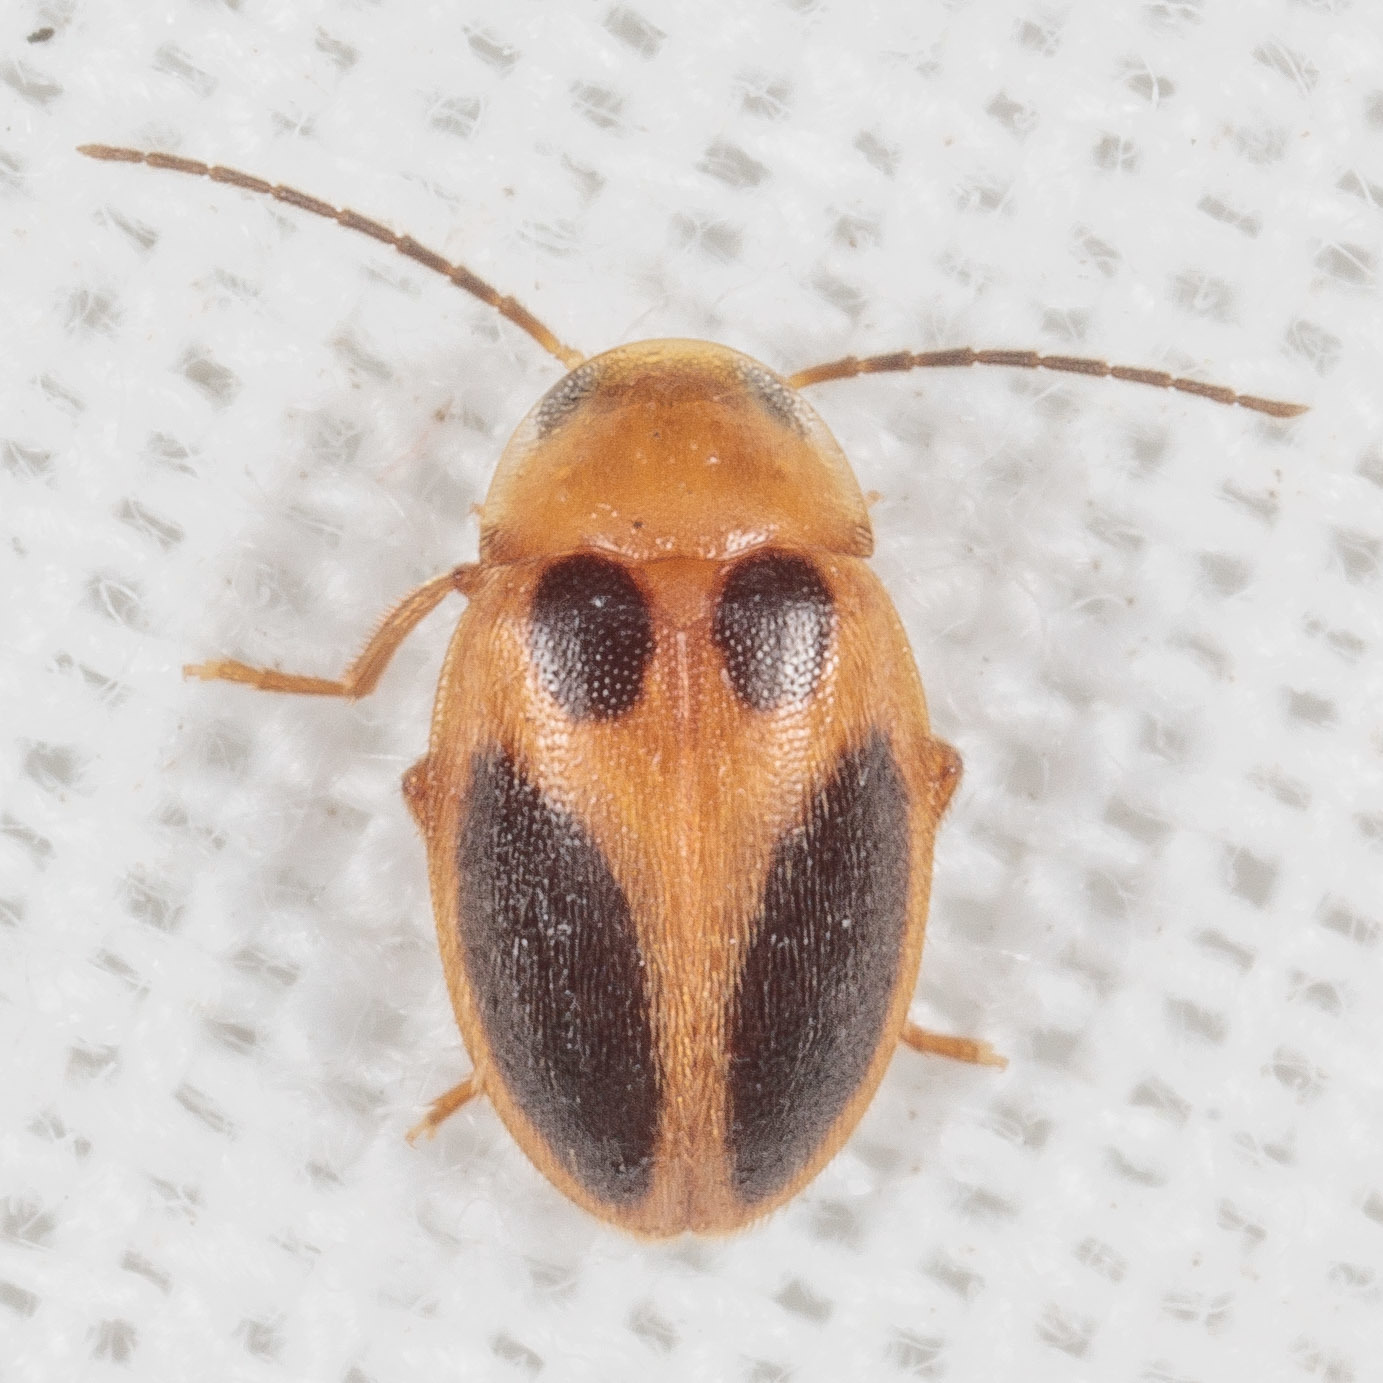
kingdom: Animalia
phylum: Arthropoda
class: Insecta
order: Coleoptera
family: Scirtidae
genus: Sacodes
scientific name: Sacodes pulchella
